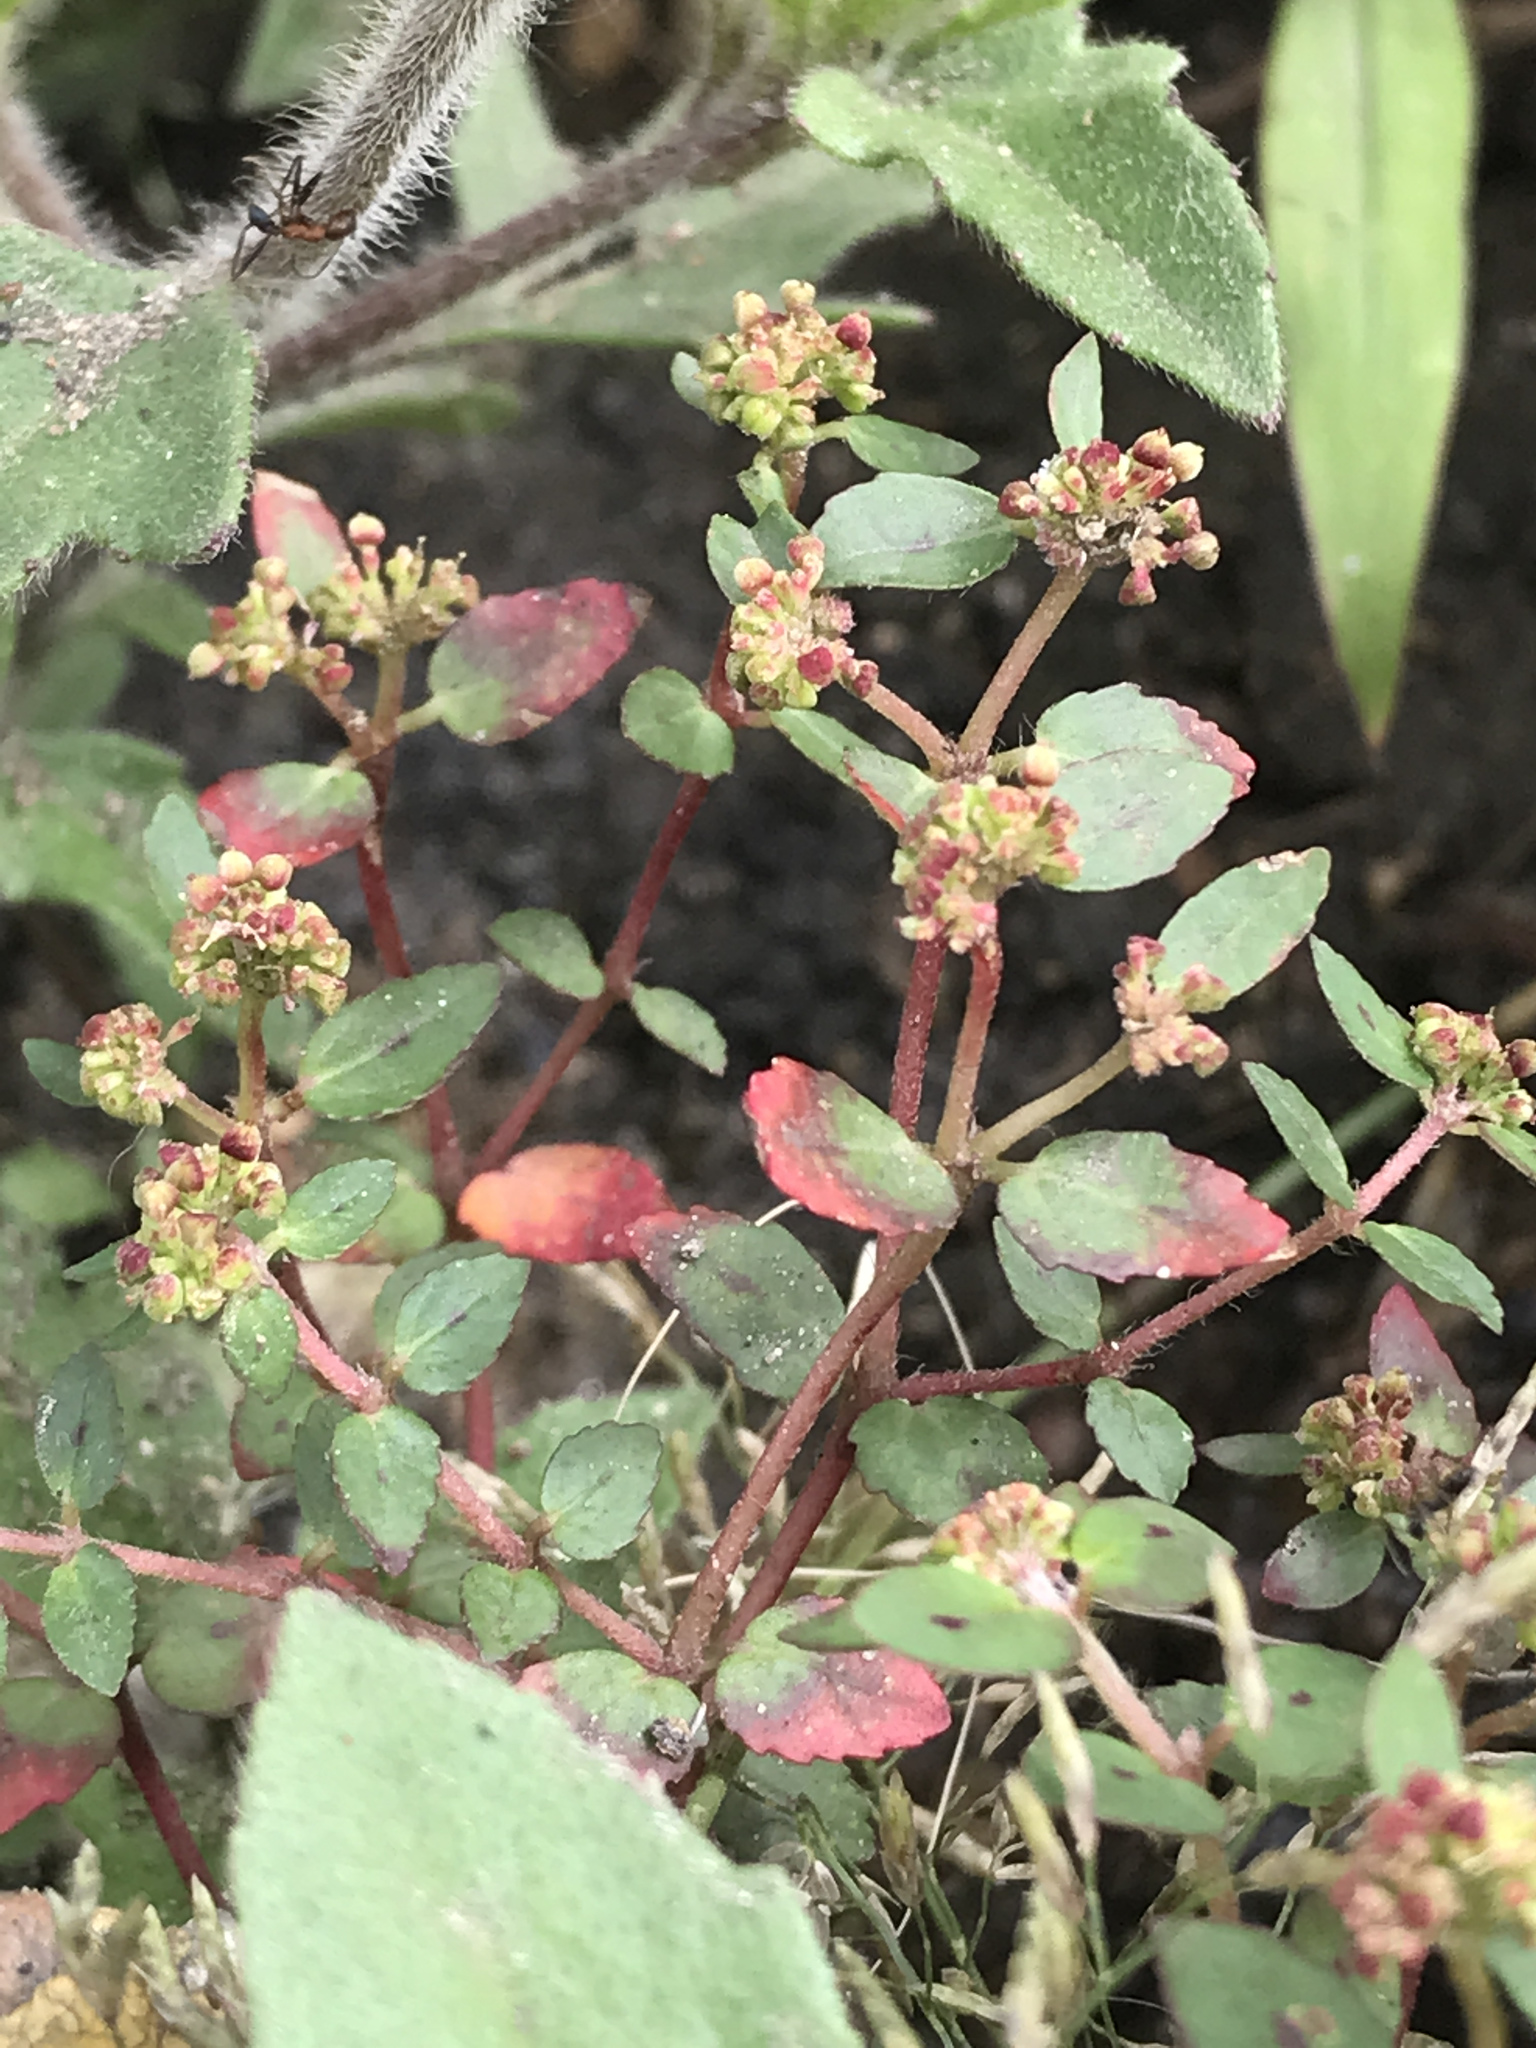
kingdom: Plantae
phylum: Tracheophyta
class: Magnoliopsida
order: Malpighiales
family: Euphorbiaceae
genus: Euphorbia
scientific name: Euphorbia ophthalmica
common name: Florida hammock sandmat
